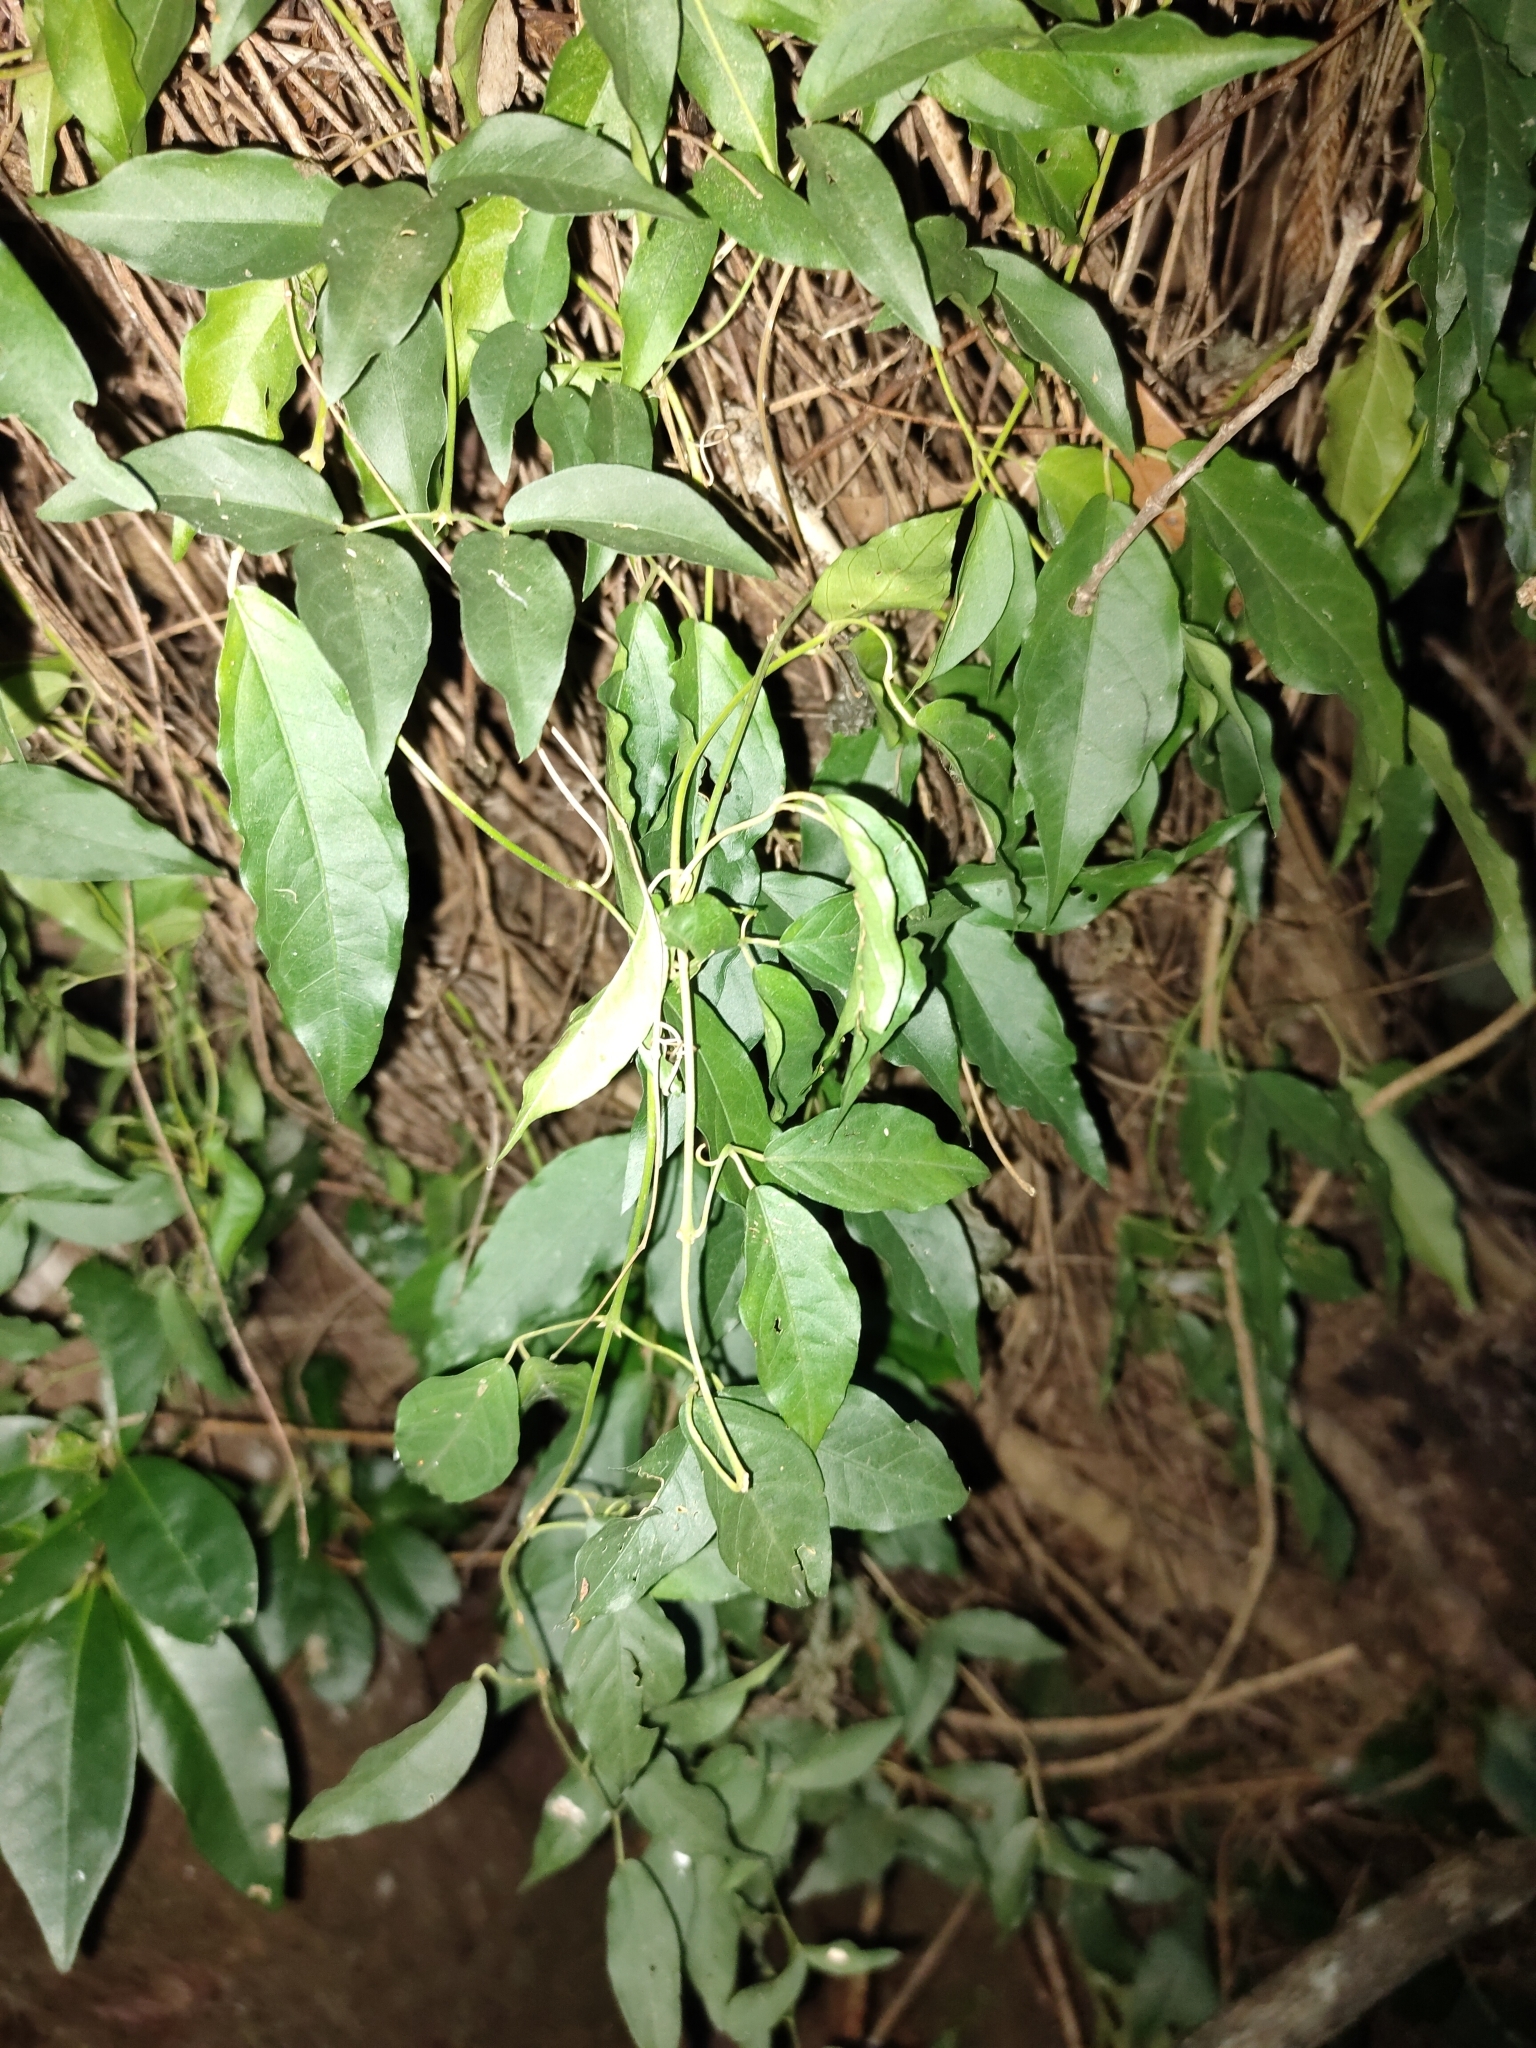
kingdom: Plantae
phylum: Tracheophyta
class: Magnoliopsida
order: Lamiales
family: Bignoniaceae
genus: Dolichandra
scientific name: Dolichandra unguis-cati
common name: Catclaw vine
